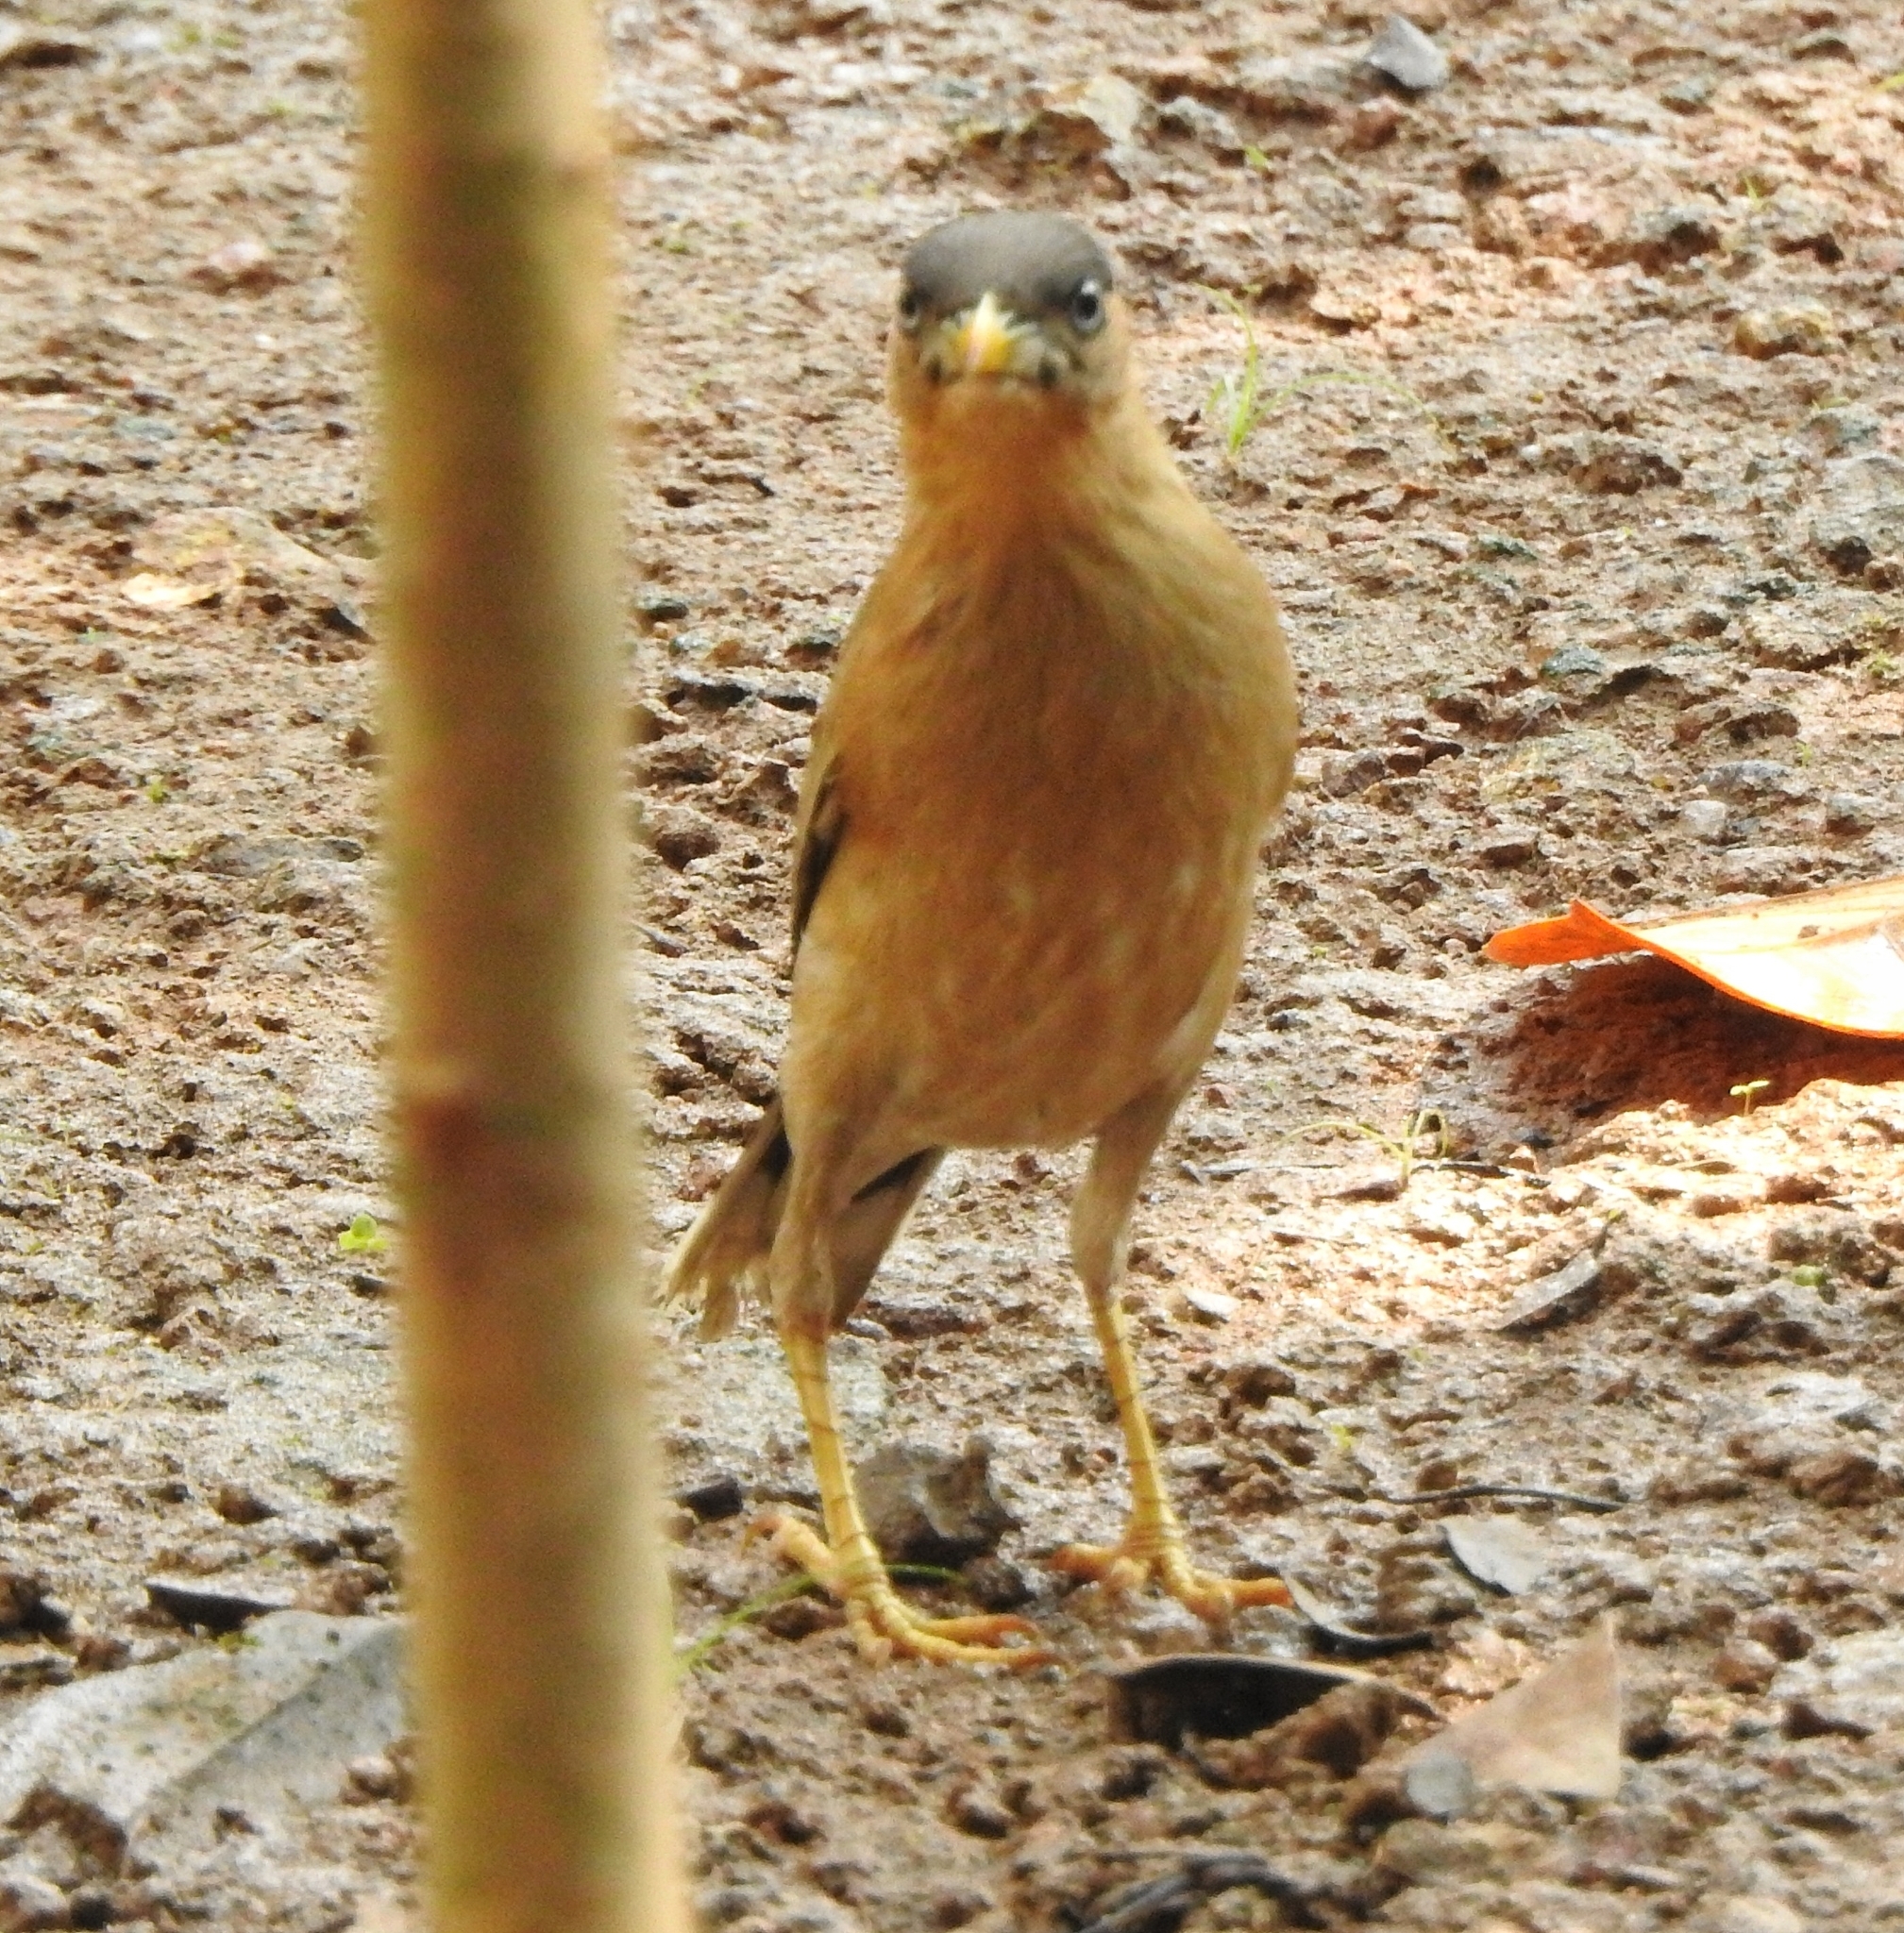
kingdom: Animalia
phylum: Chordata
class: Aves
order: Passeriformes
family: Sturnidae
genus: Sturnia
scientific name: Sturnia pagodarum
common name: Brahminy starling
